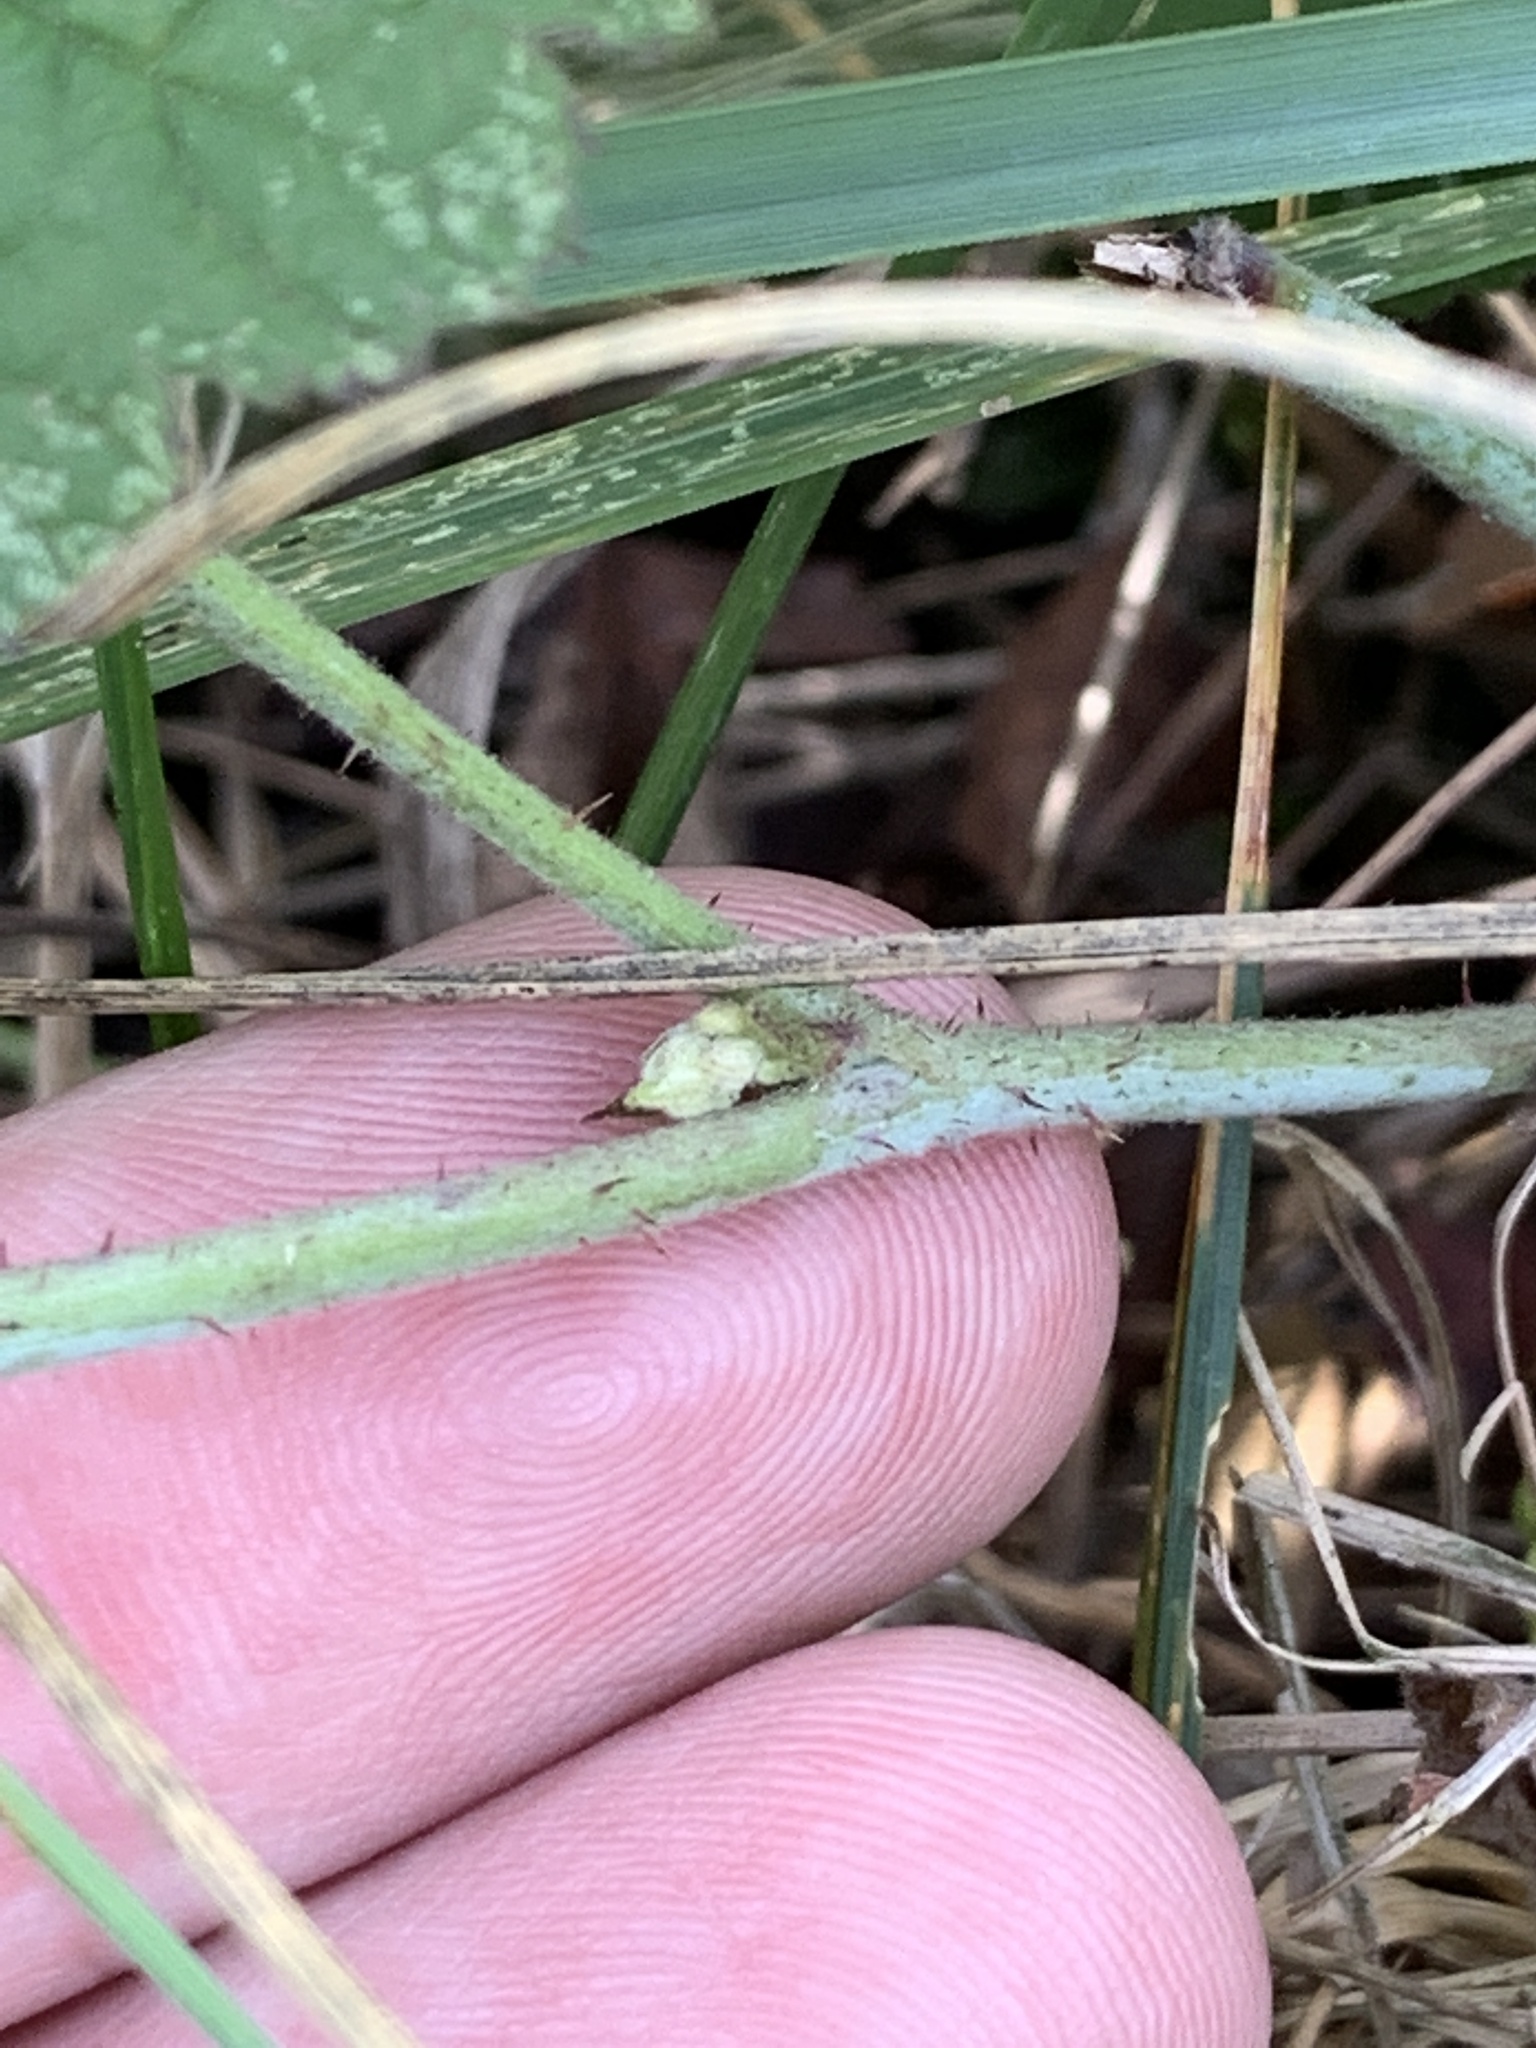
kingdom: Plantae
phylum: Tracheophyta
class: Magnoliopsida
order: Rosales
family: Rosaceae
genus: Rubus
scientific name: Rubus caesius
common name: Dewberry
